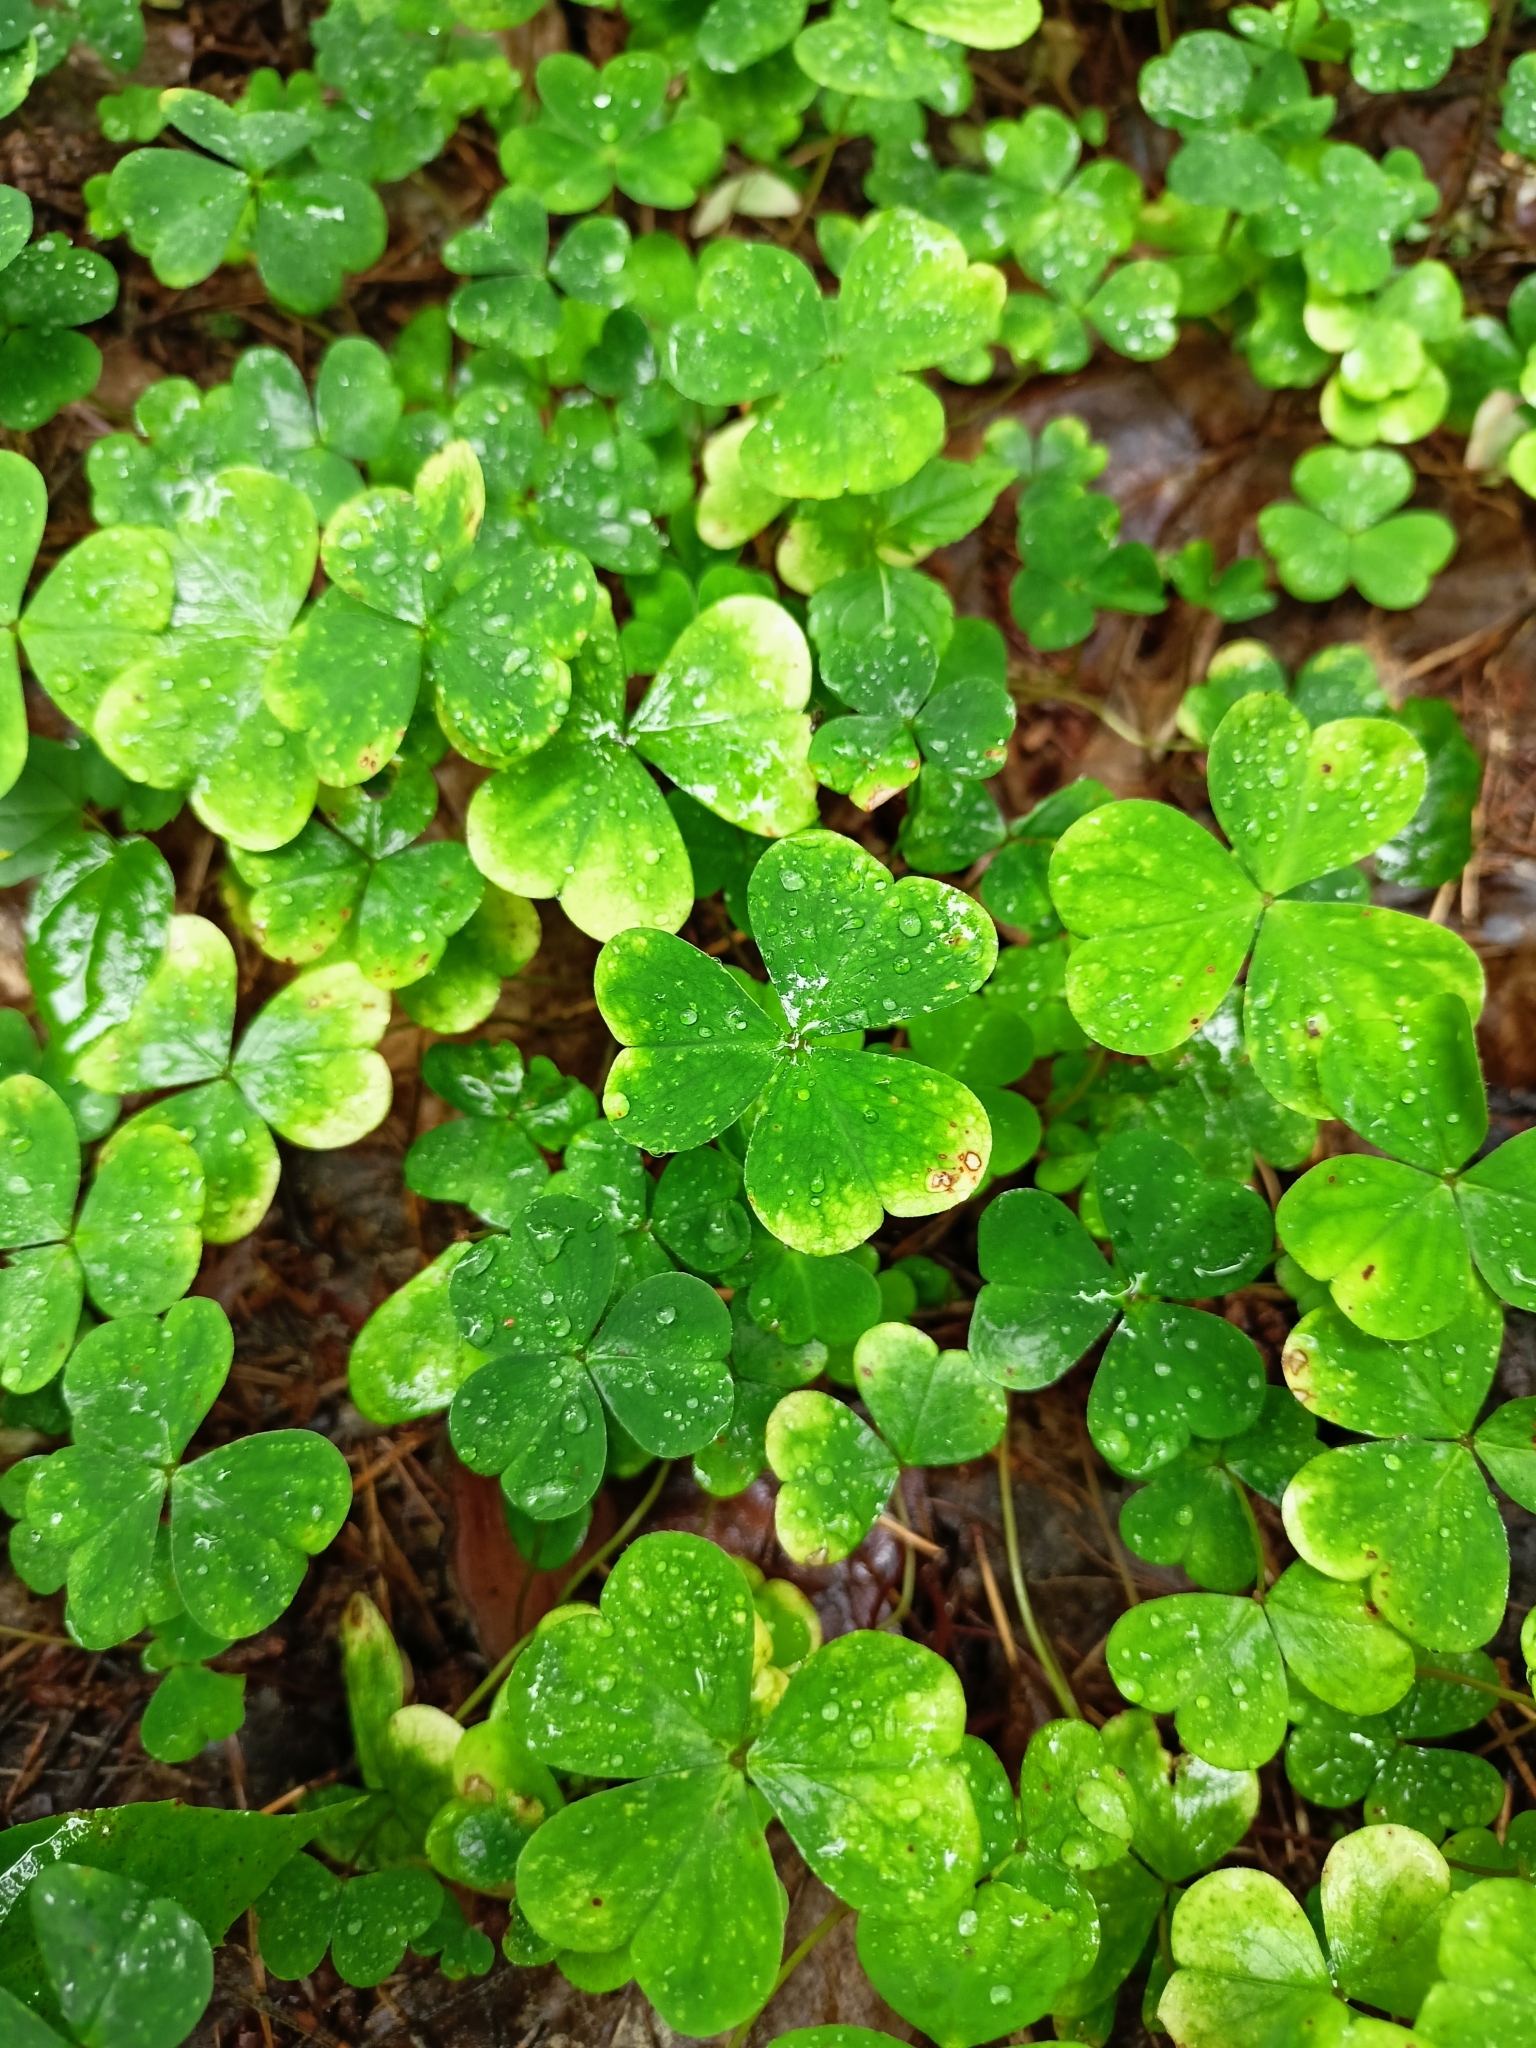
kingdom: Plantae
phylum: Tracheophyta
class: Magnoliopsida
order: Oxalidales
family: Oxalidaceae
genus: Oxalis
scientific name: Oxalis acetosella
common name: Wood-sorrel
